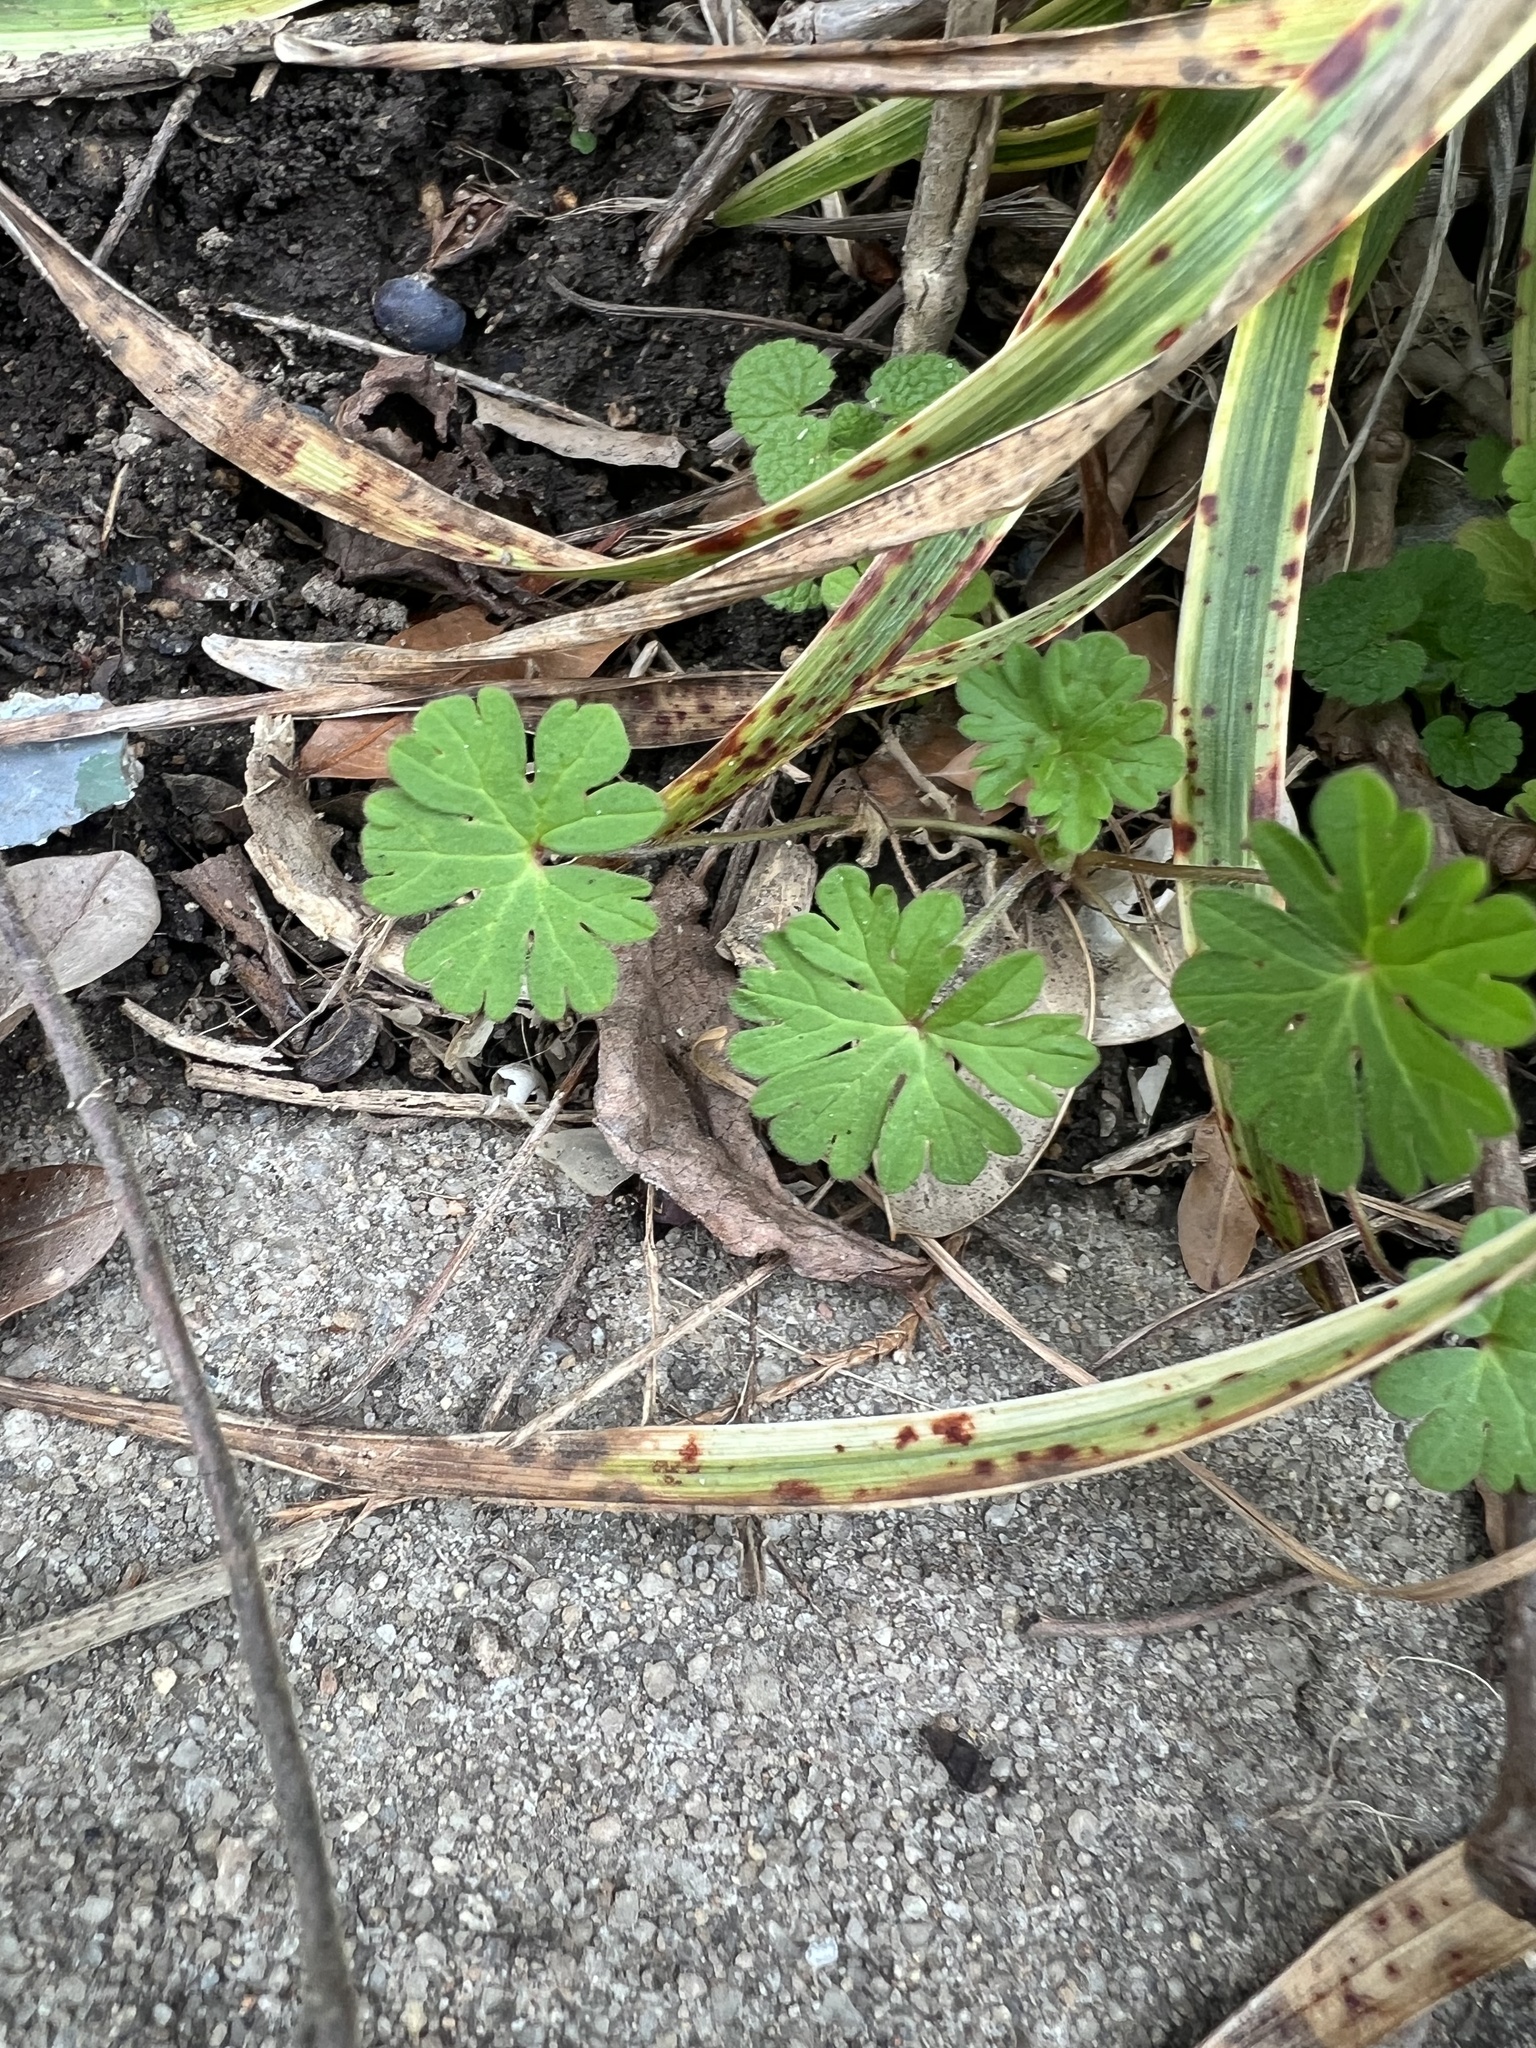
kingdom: Plantae
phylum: Tracheophyta
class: Magnoliopsida
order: Geraniales
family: Geraniaceae
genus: Geranium
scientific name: Geranium molle
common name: Dove's-foot crane's-bill
